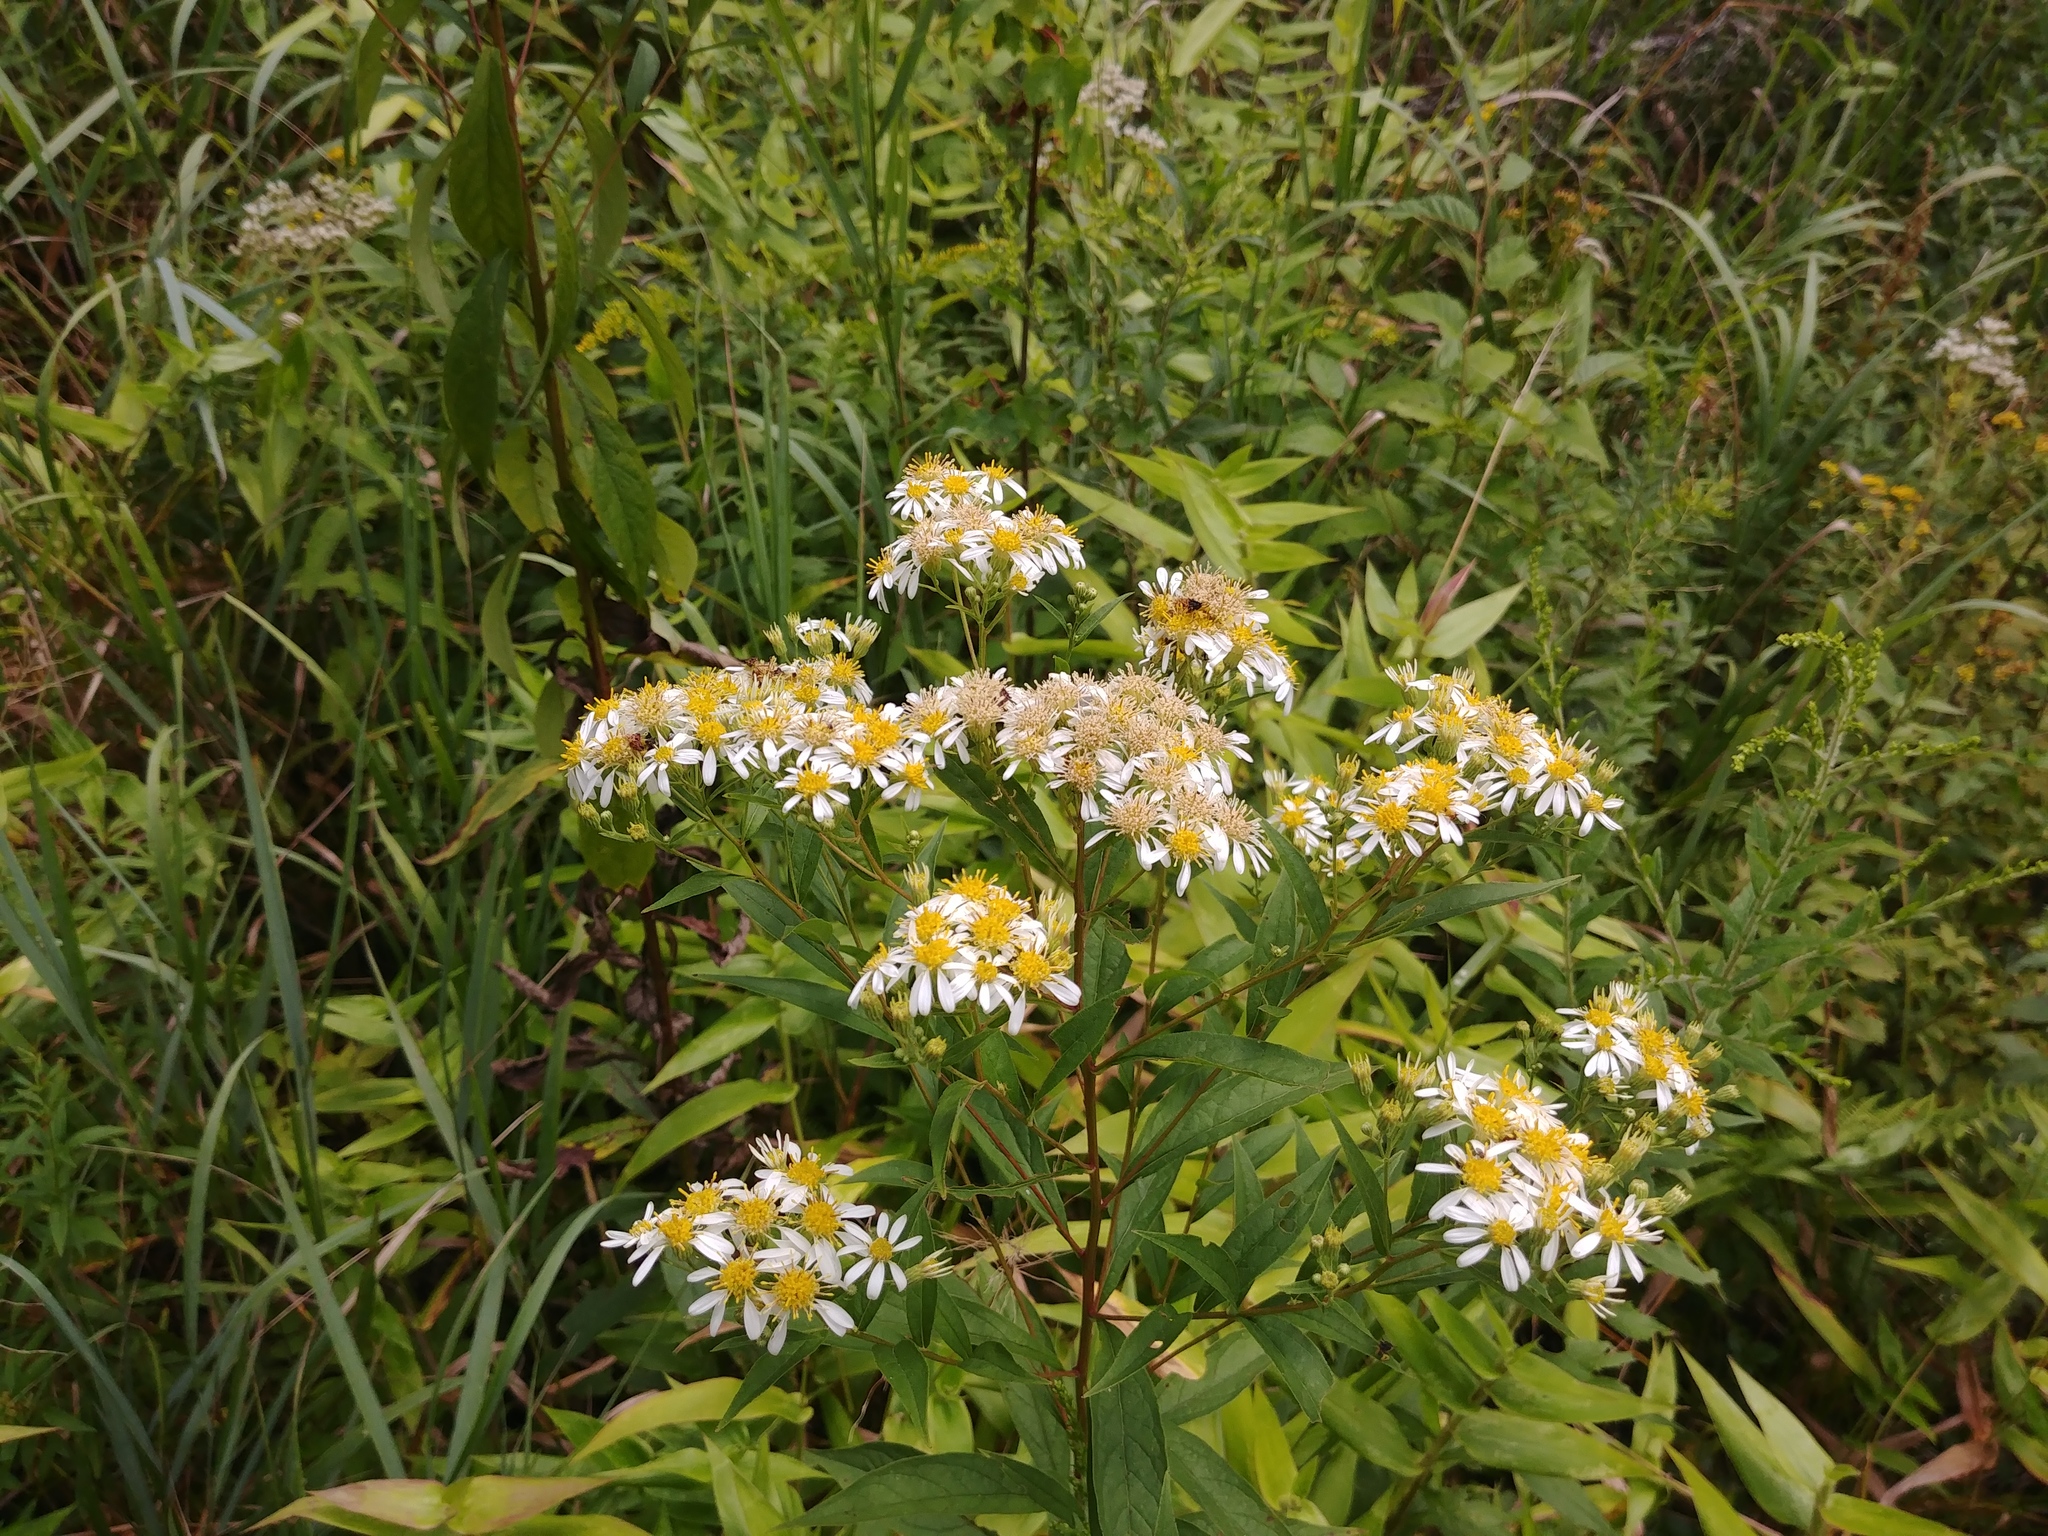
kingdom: Plantae
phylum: Tracheophyta
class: Magnoliopsida
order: Asterales
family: Asteraceae
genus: Doellingeria
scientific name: Doellingeria umbellata
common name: Flat-top white aster
